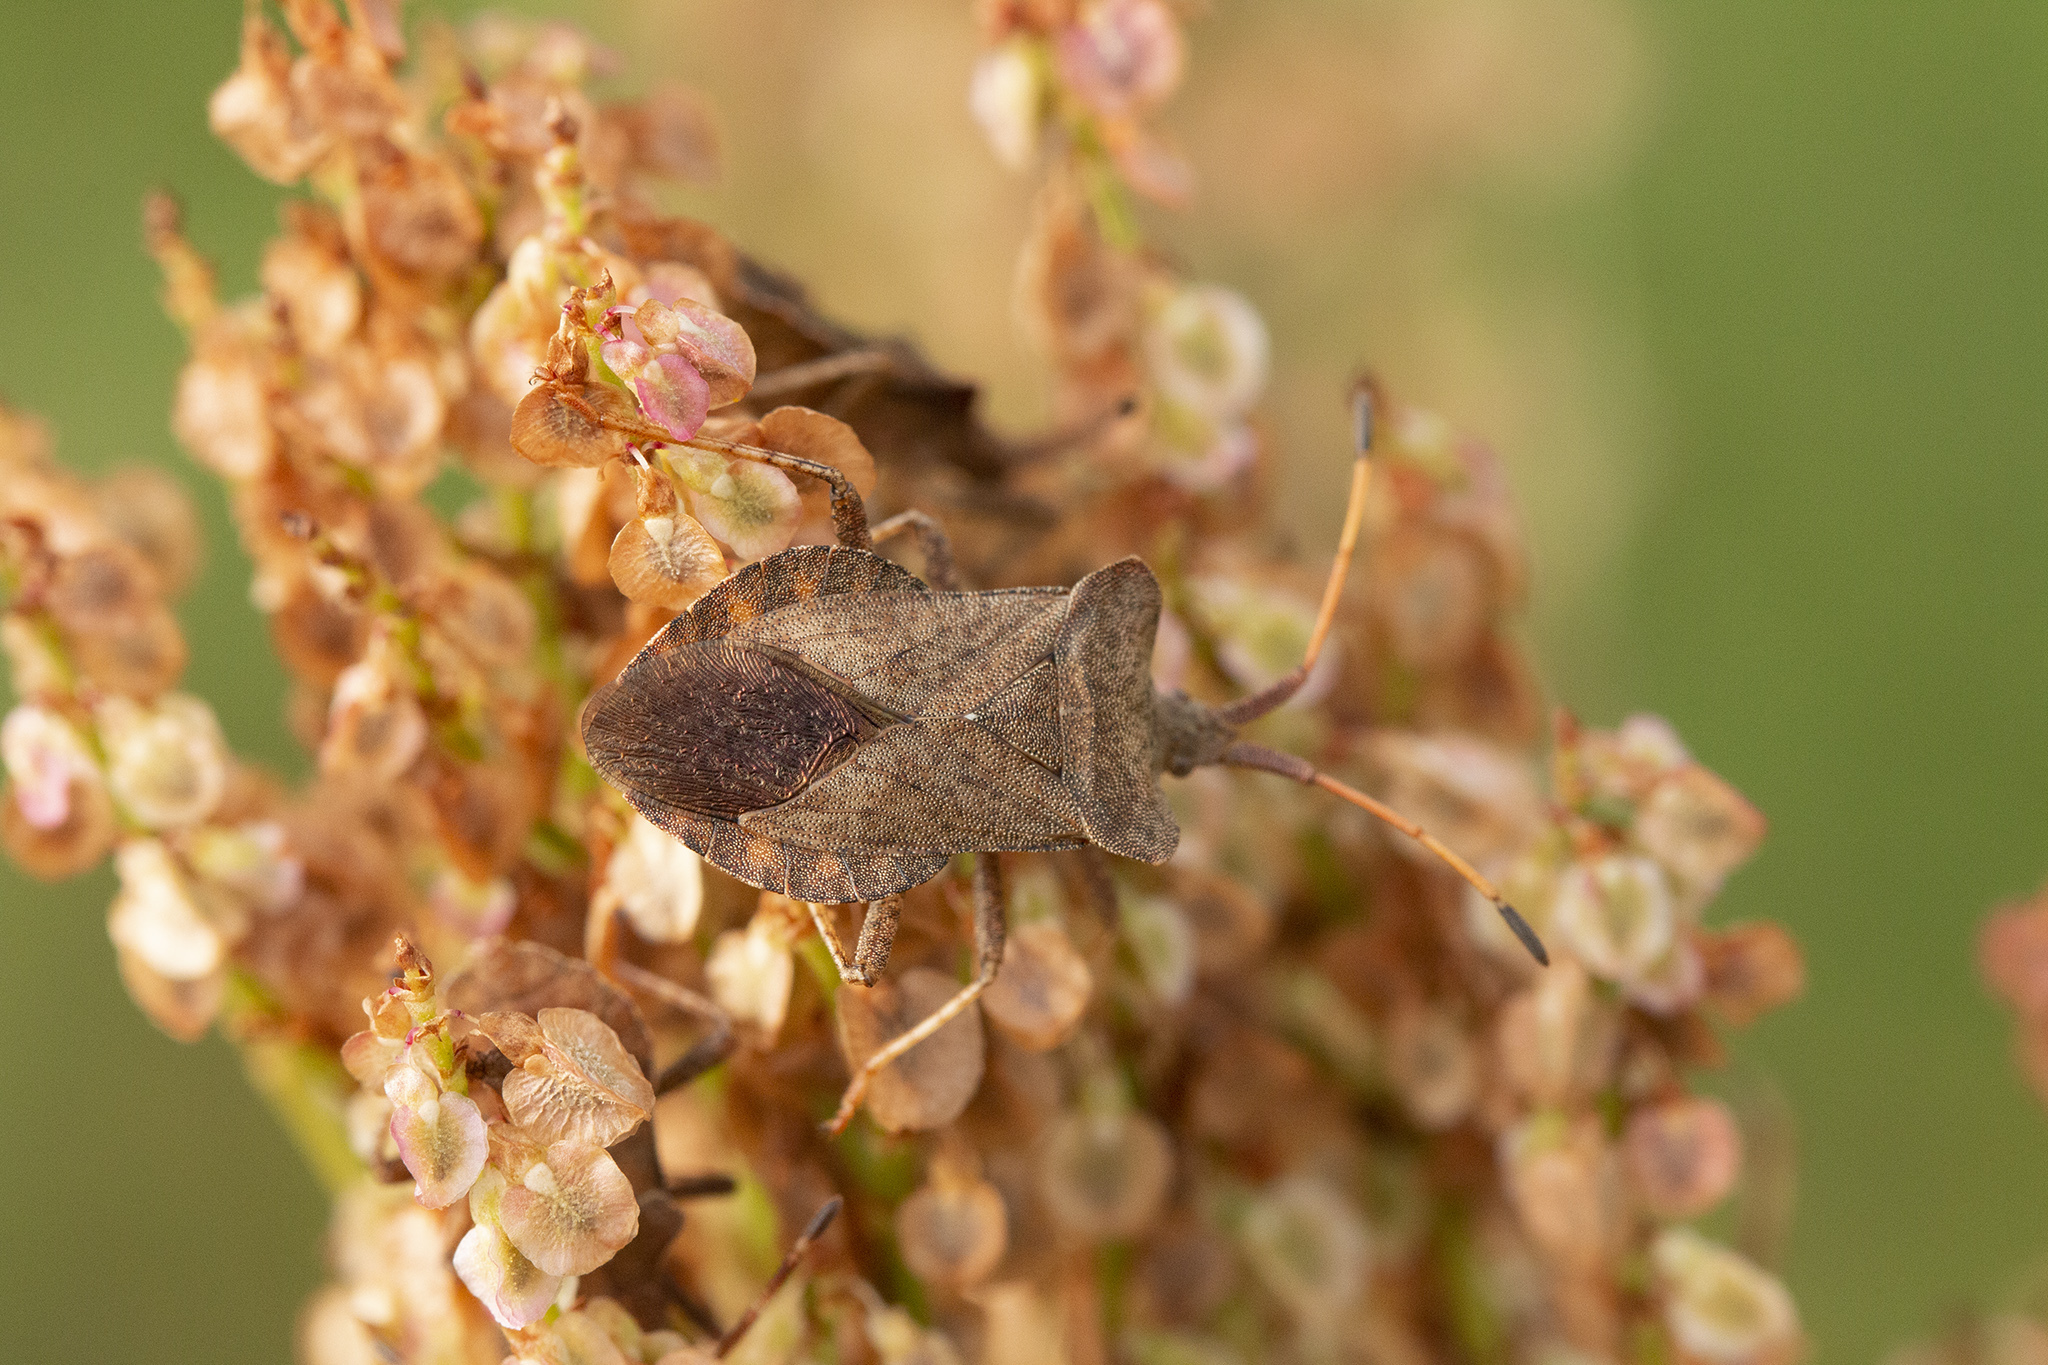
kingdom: Animalia
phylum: Arthropoda
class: Insecta
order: Hemiptera
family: Coreidae
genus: Coreus
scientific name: Coreus marginatus
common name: Dock bug
